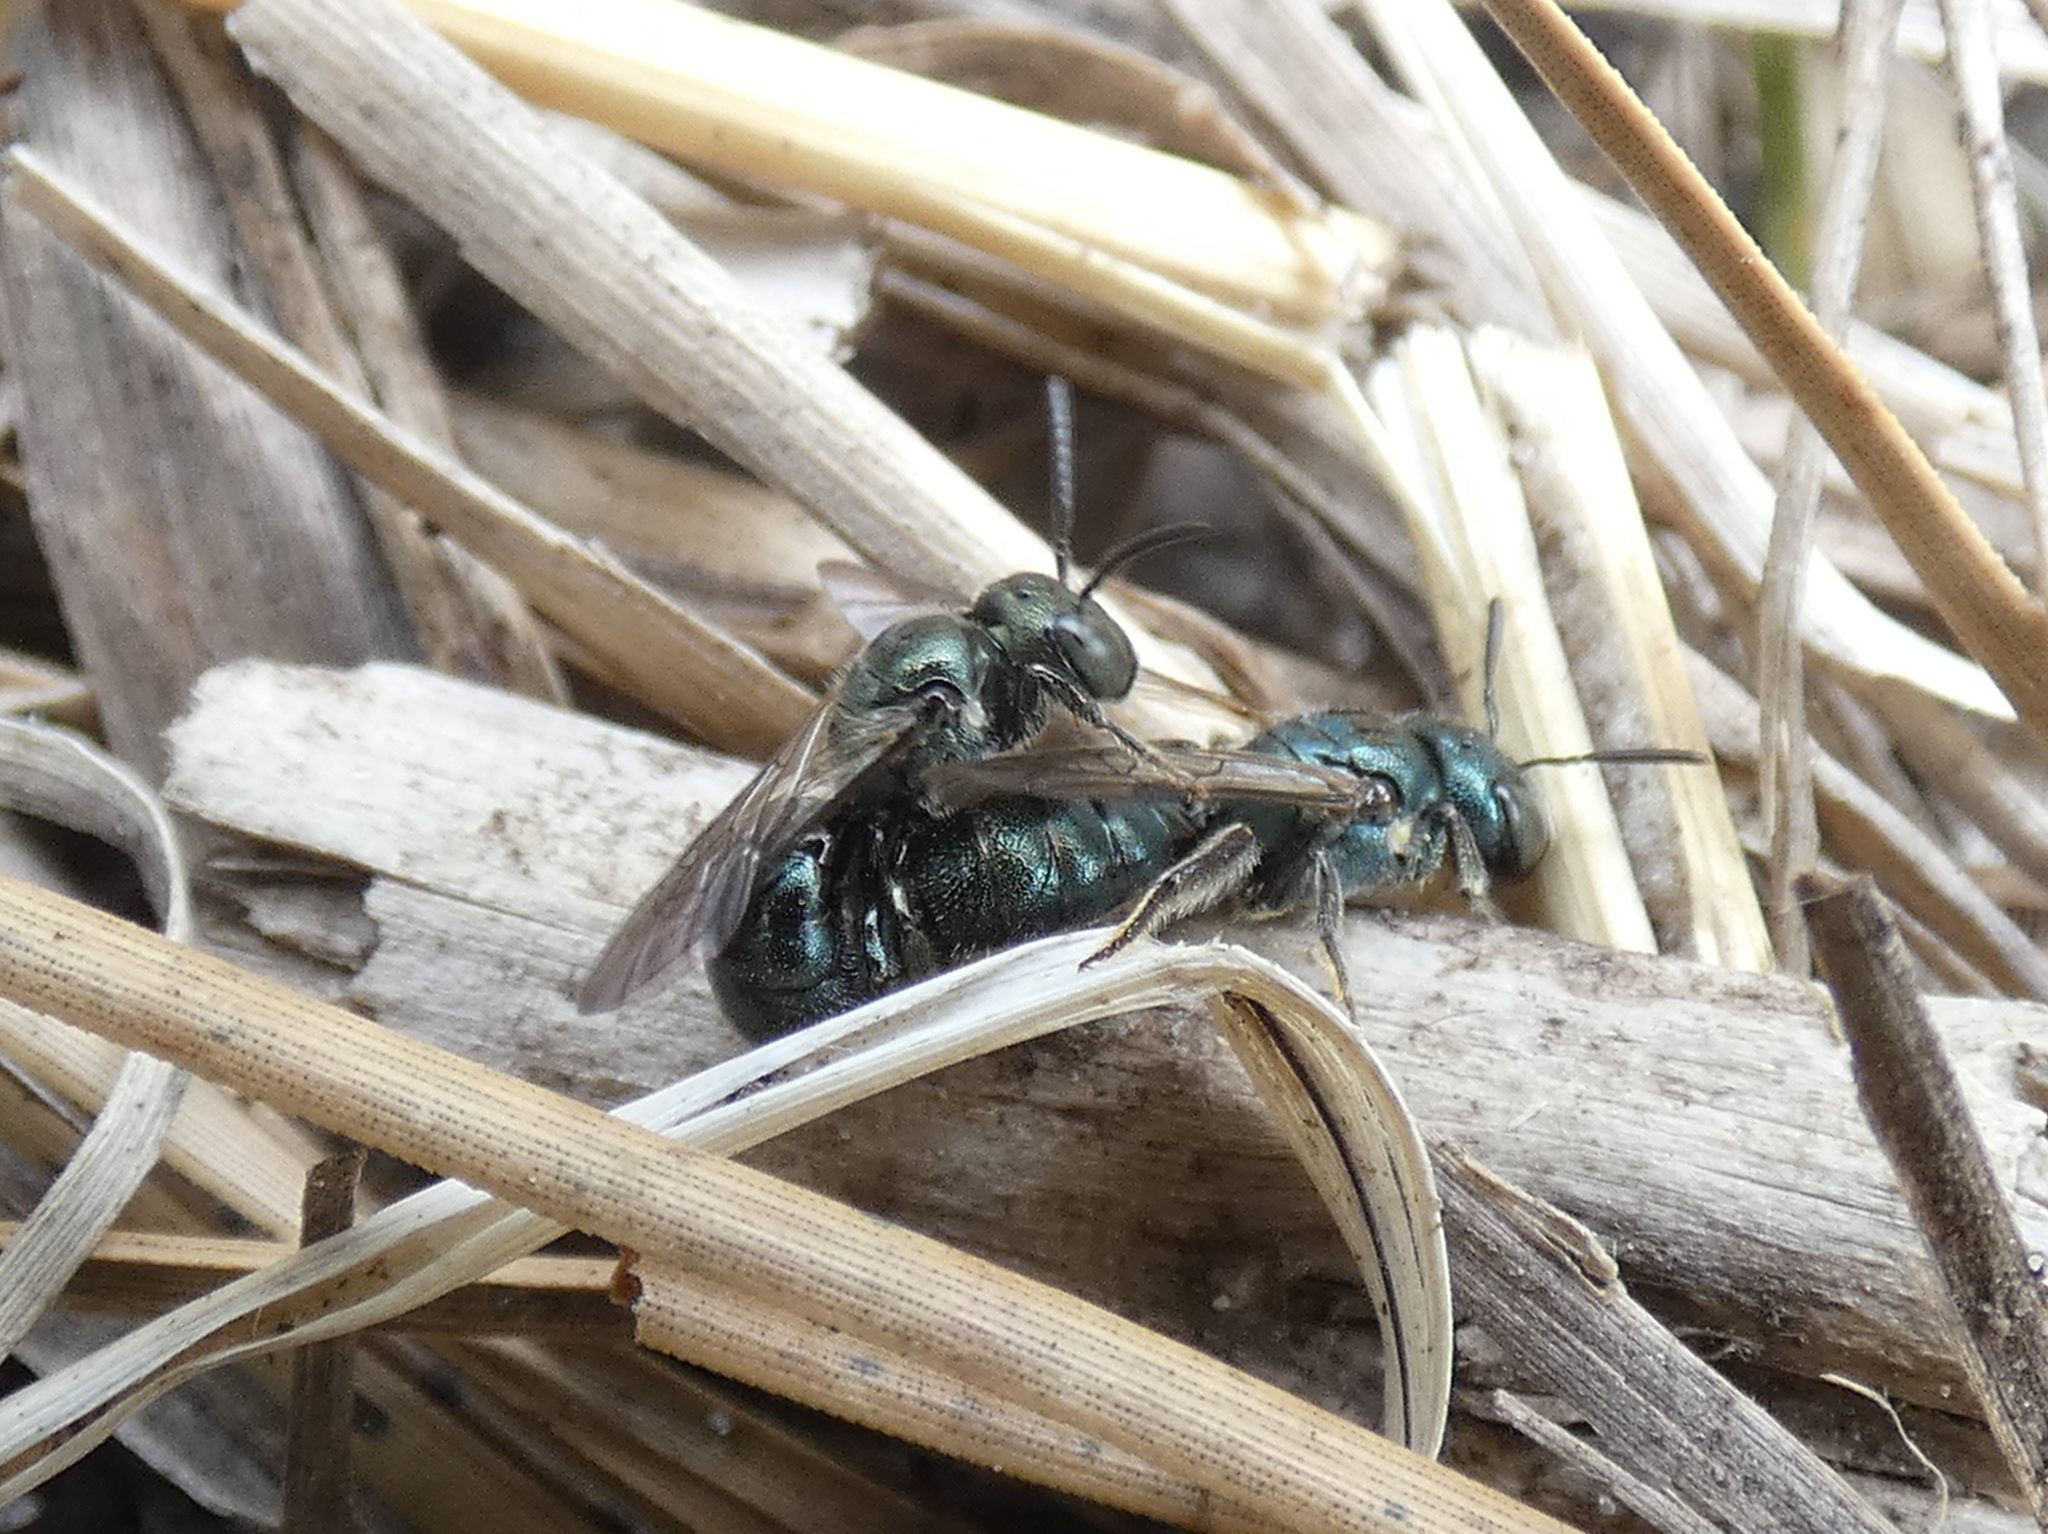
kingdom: Animalia
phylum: Arthropoda
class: Insecta
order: Hymenoptera
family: Apidae
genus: Zadontomerus
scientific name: Zadontomerus
